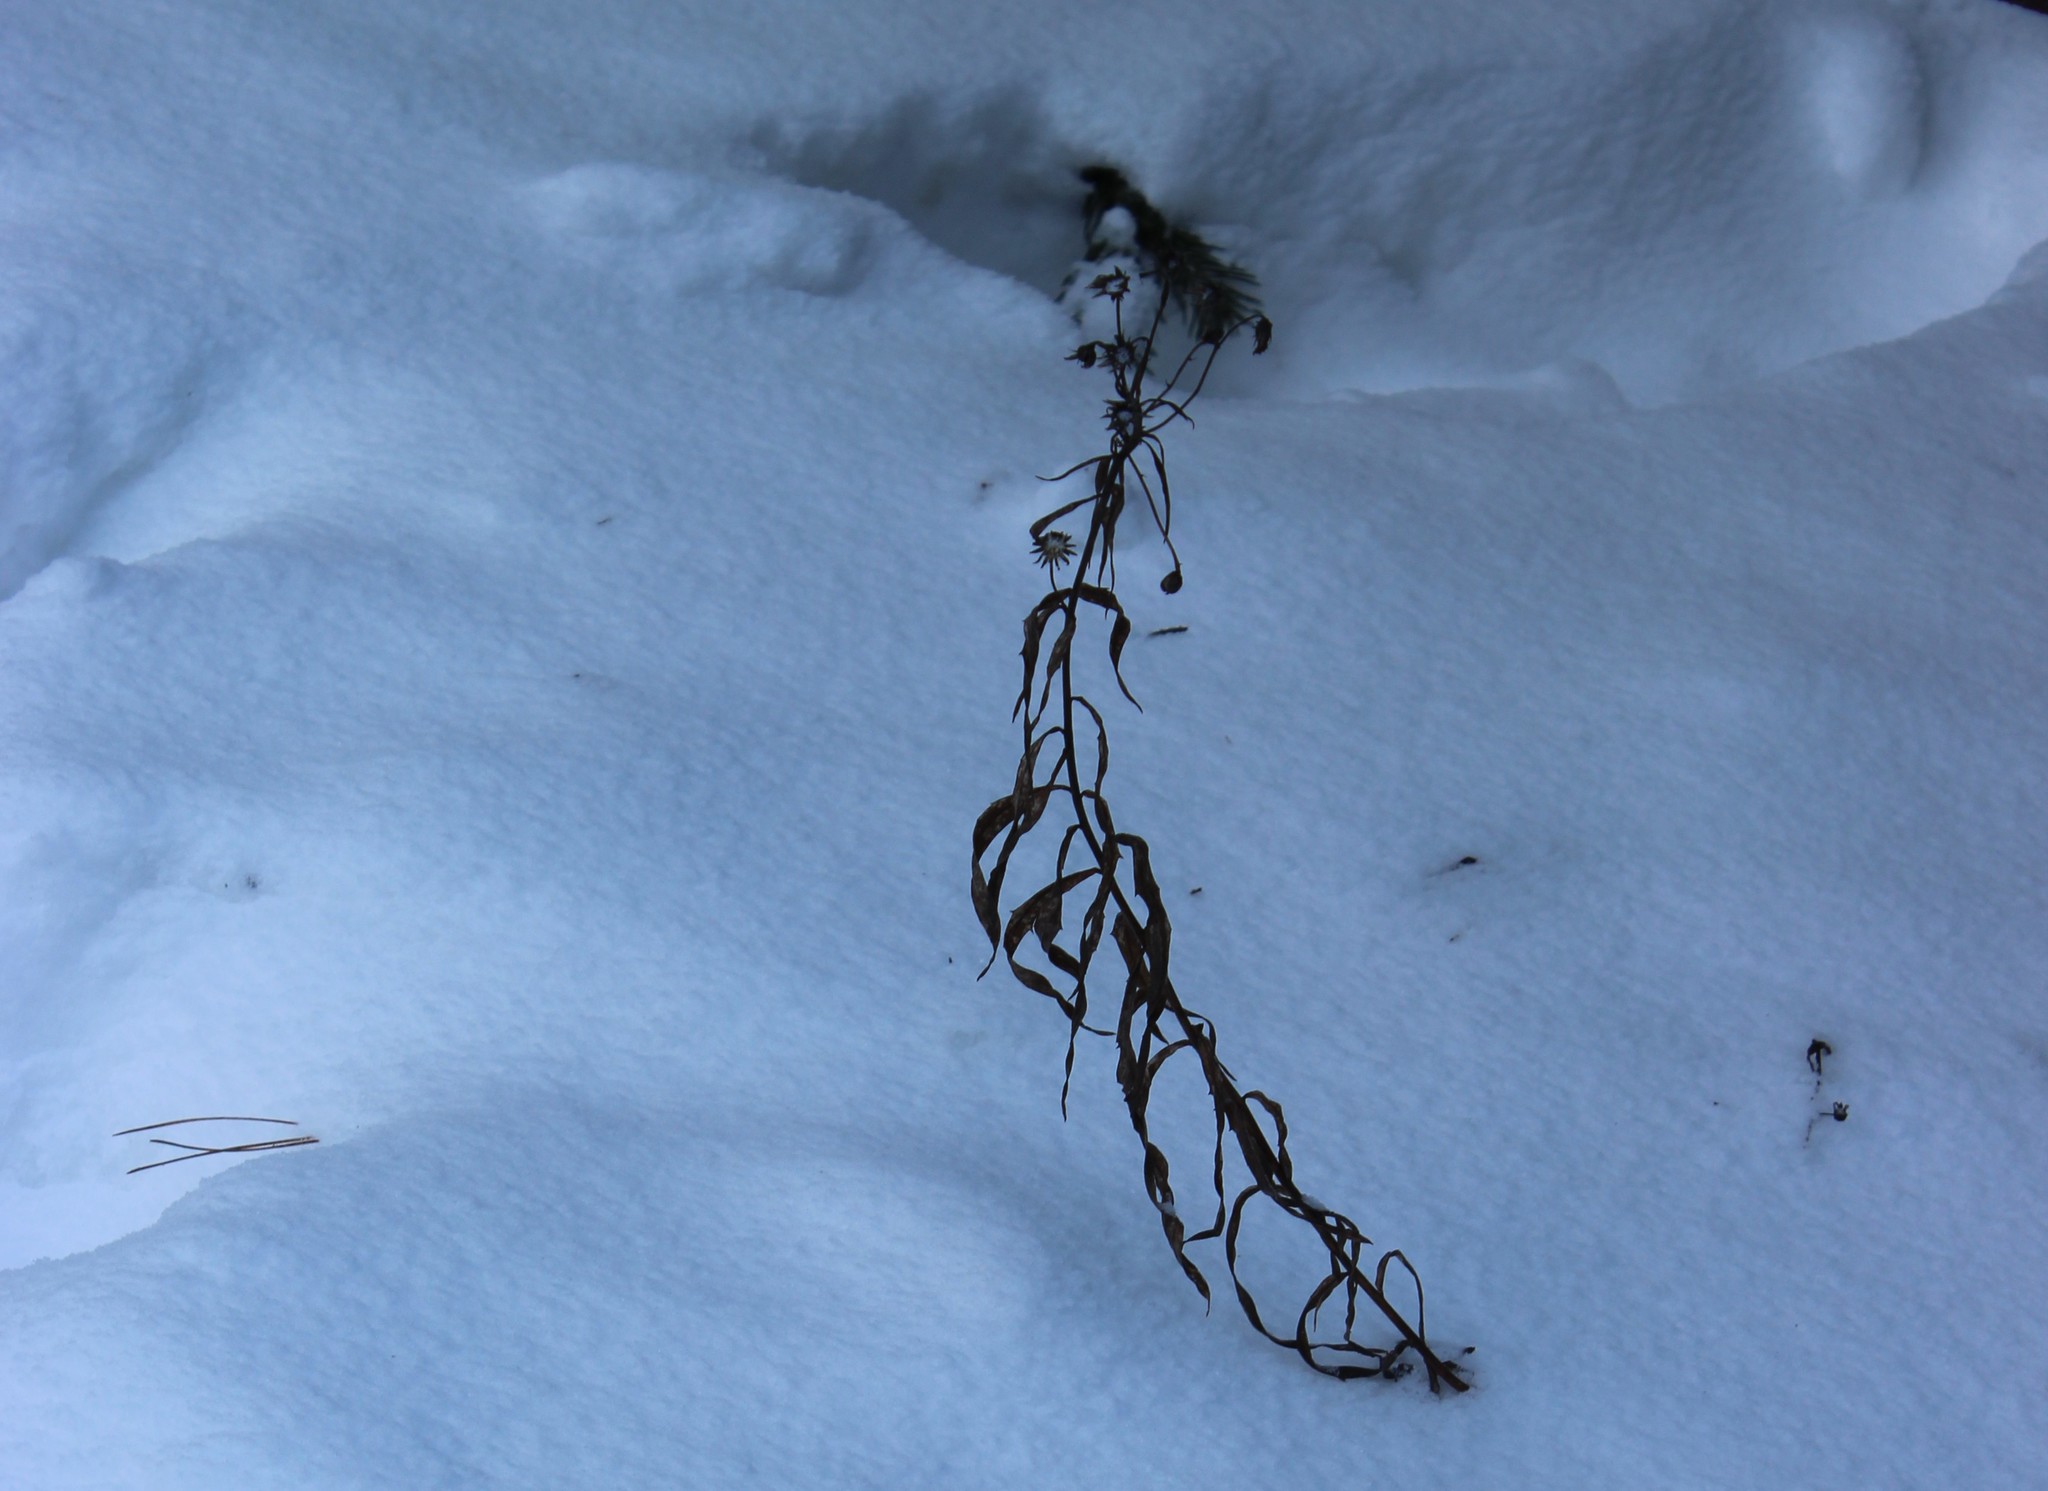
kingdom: Plantae
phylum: Tracheophyta
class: Magnoliopsida
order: Asterales
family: Asteraceae
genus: Hieracium
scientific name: Hieracium umbellatum
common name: Northern hawkweed
